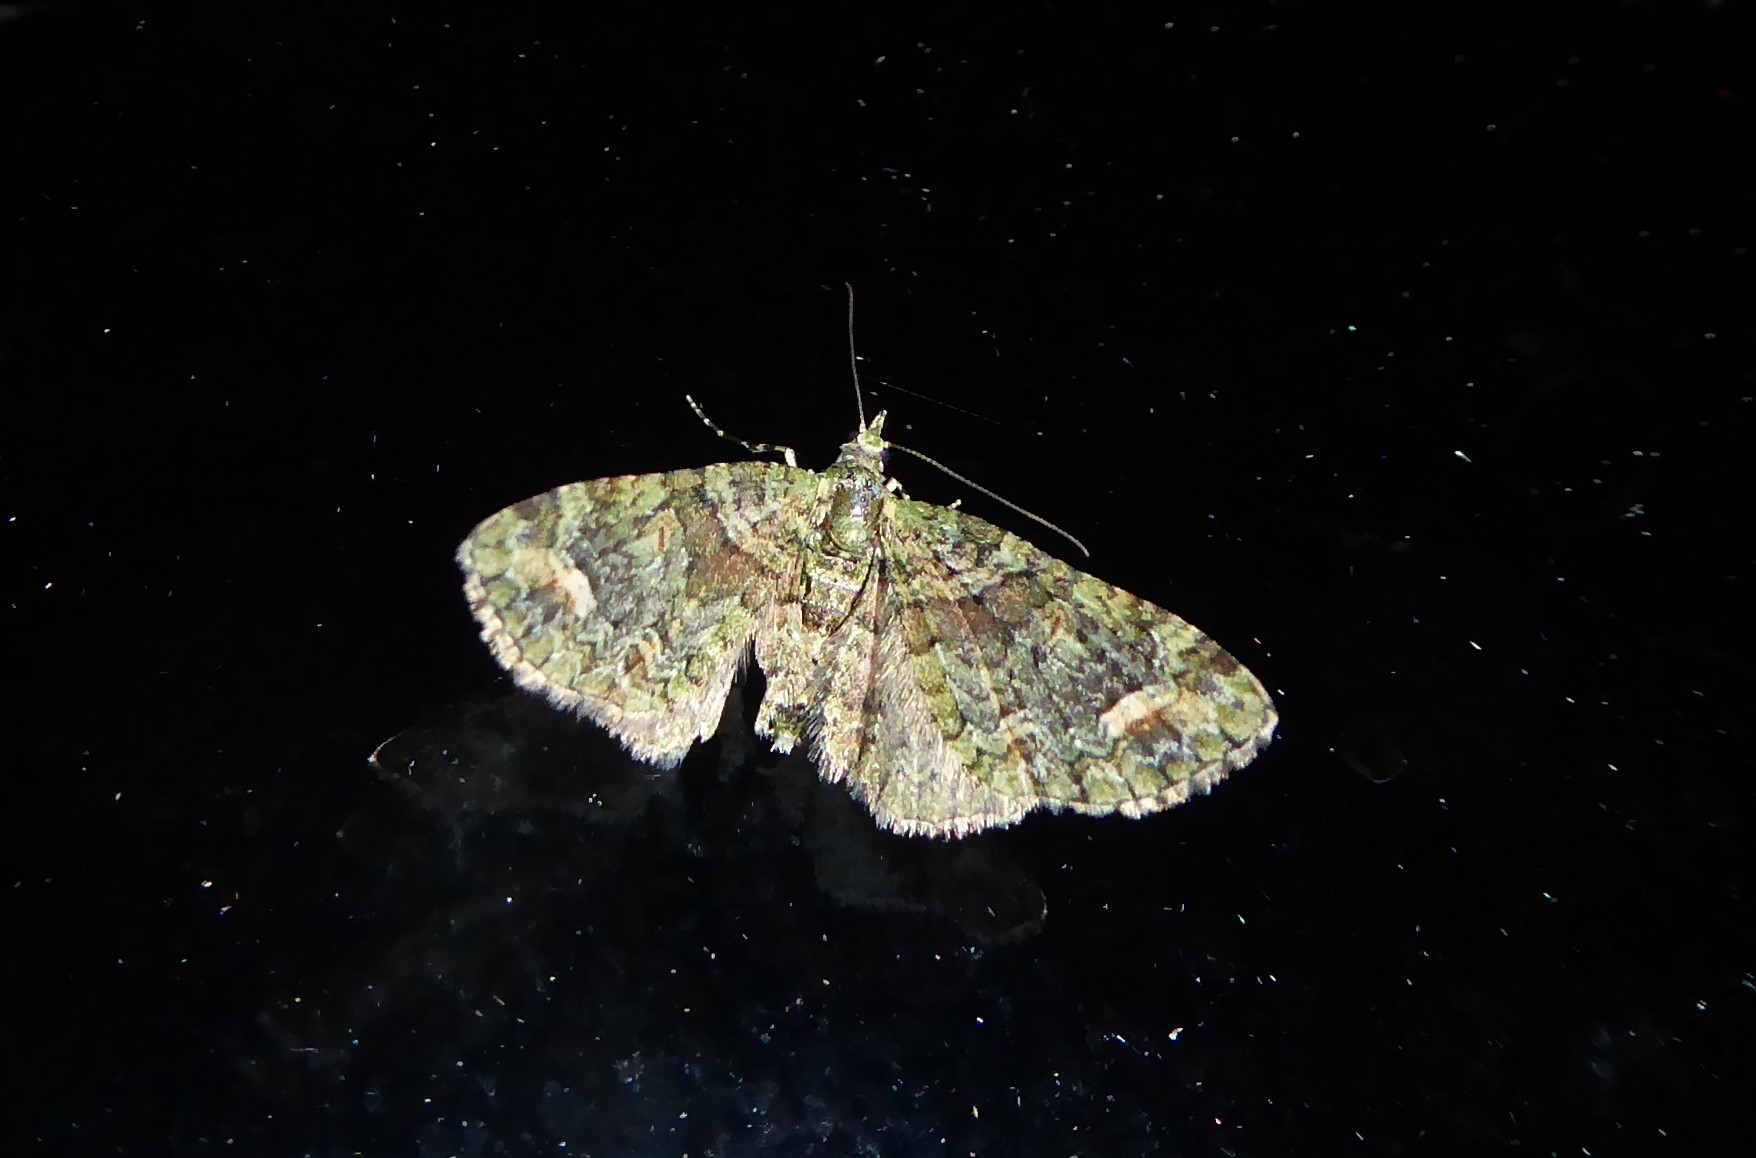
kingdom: Animalia
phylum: Arthropoda
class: Insecta
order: Lepidoptera
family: Geometridae
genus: Idaea
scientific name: Idaea mutanda
